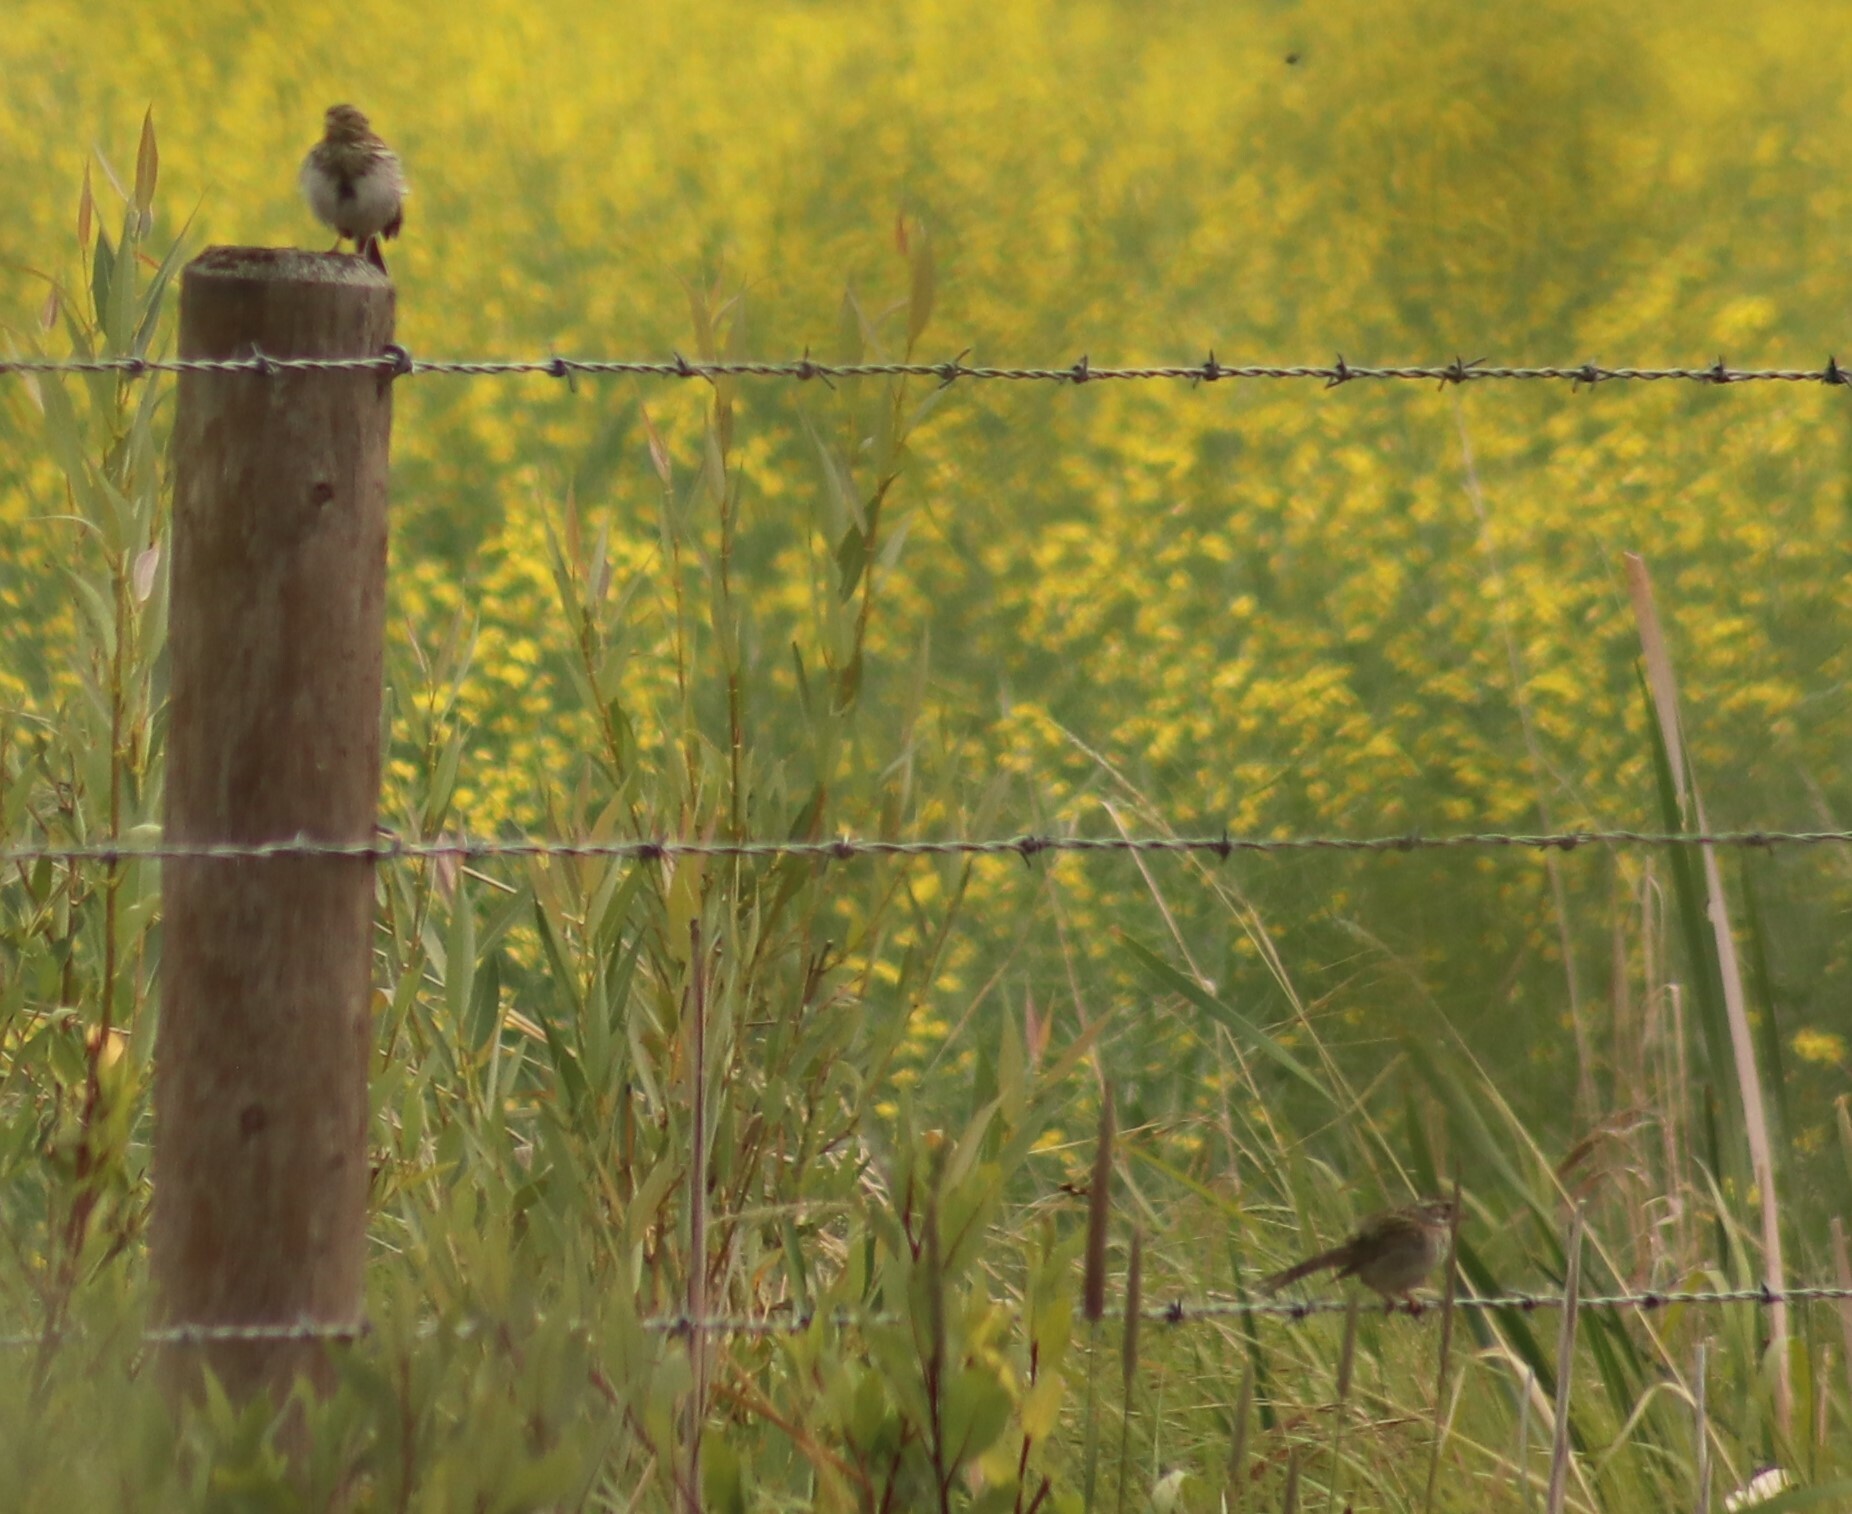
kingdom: Animalia
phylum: Chordata
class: Aves
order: Passeriformes
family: Passerellidae
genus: Melospiza
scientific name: Melospiza melodia
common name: Song sparrow
